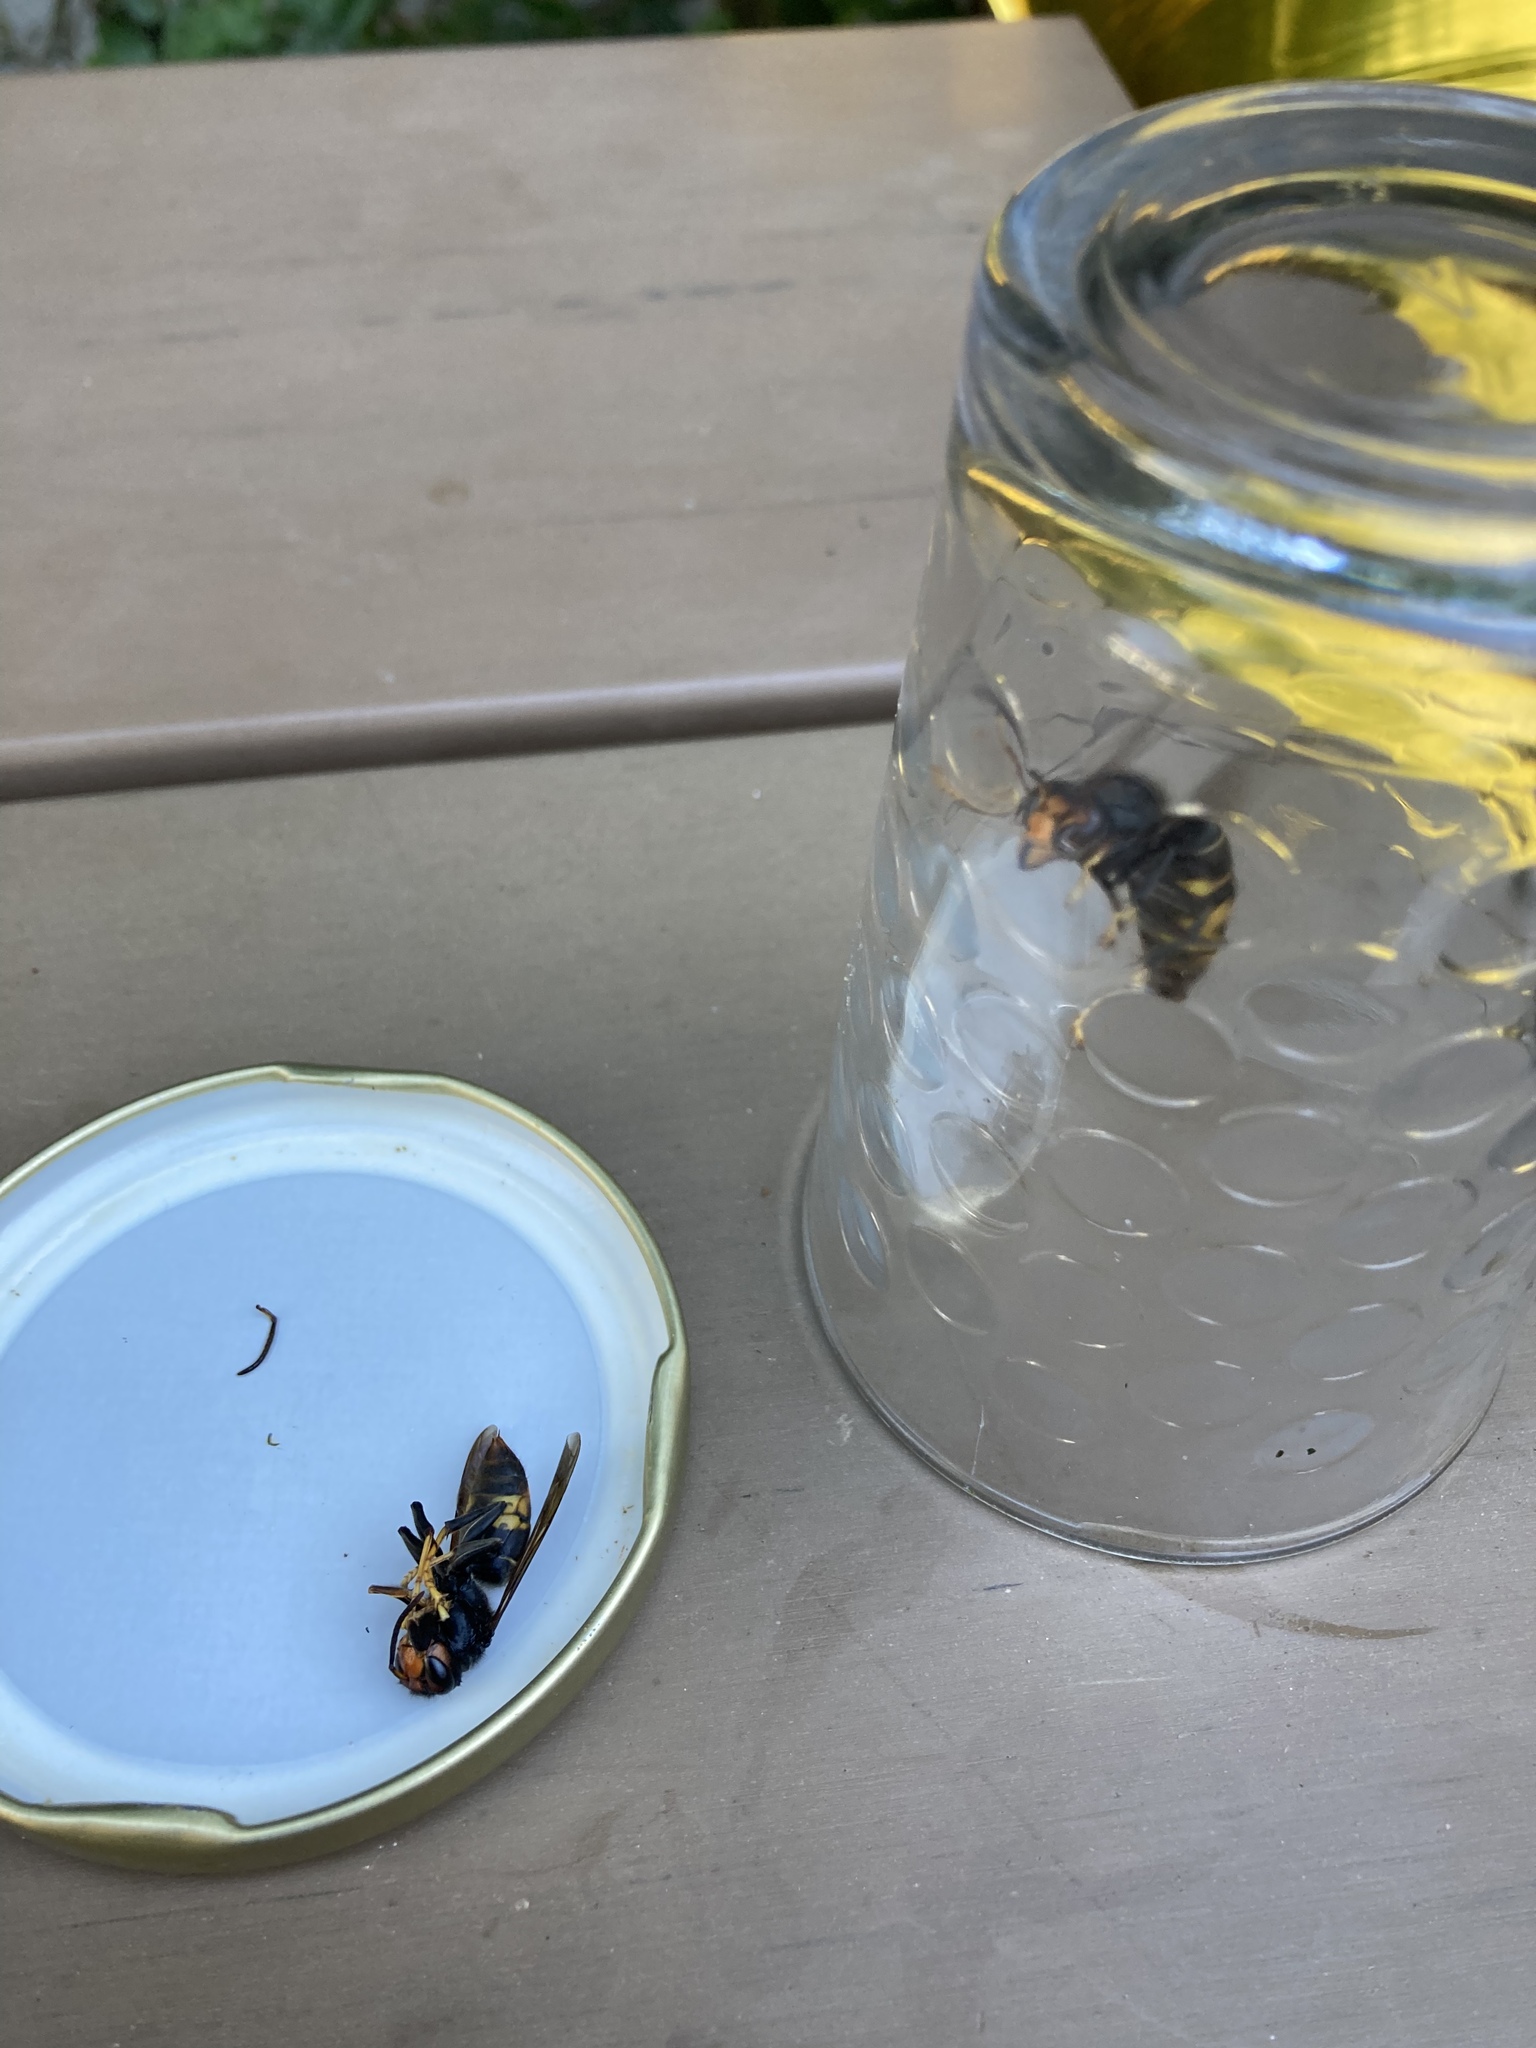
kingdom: Animalia
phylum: Arthropoda
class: Insecta
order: Hymenoptera
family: Vespidae
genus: Vespa
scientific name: Vespa velutina
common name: Asian hornet
